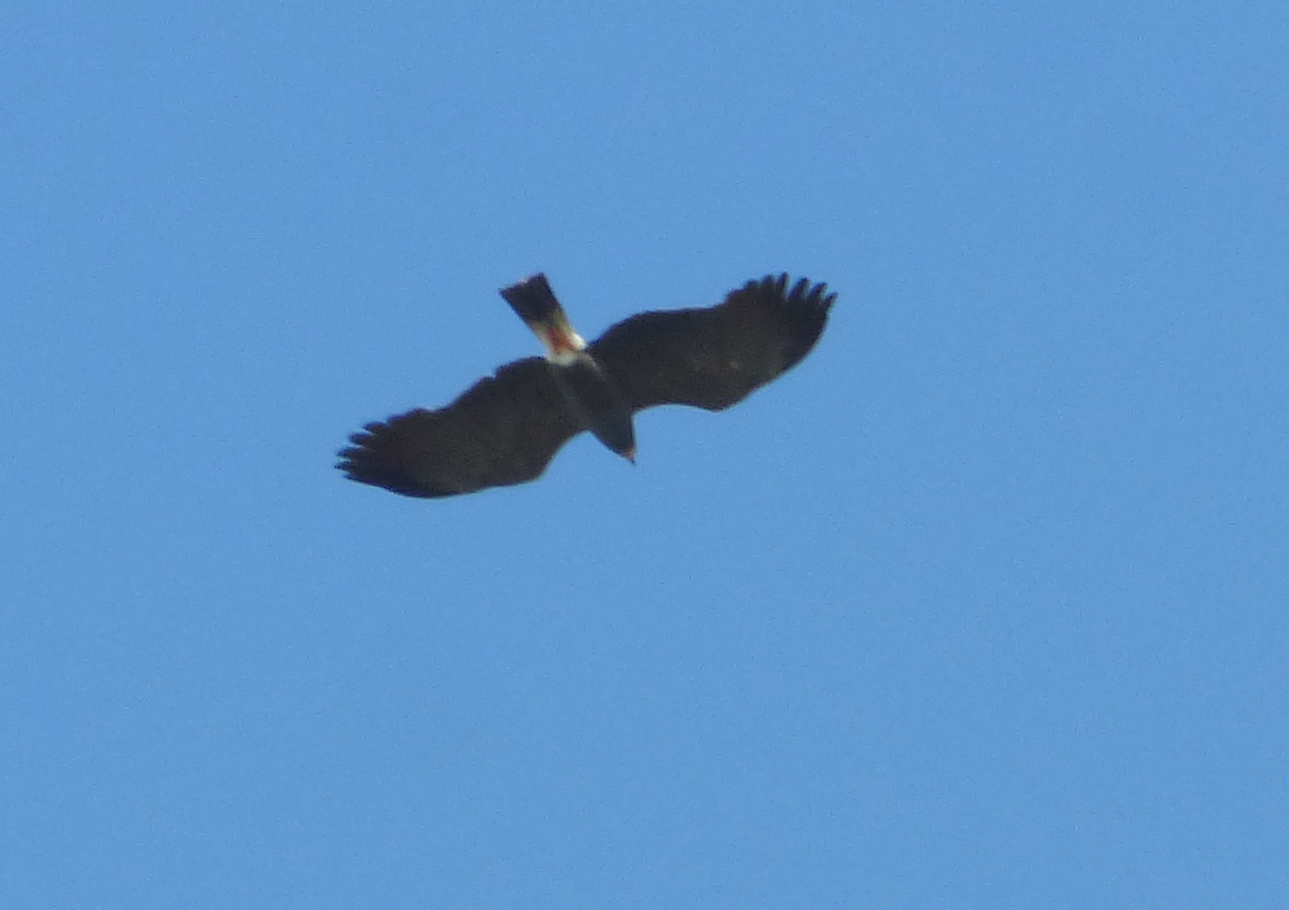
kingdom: Animalia
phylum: Chordata
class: Aves
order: Accipitriformes
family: Accipitridae
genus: Rostrhamus
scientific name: Rostrhamus sociabilis
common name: Snail kite
